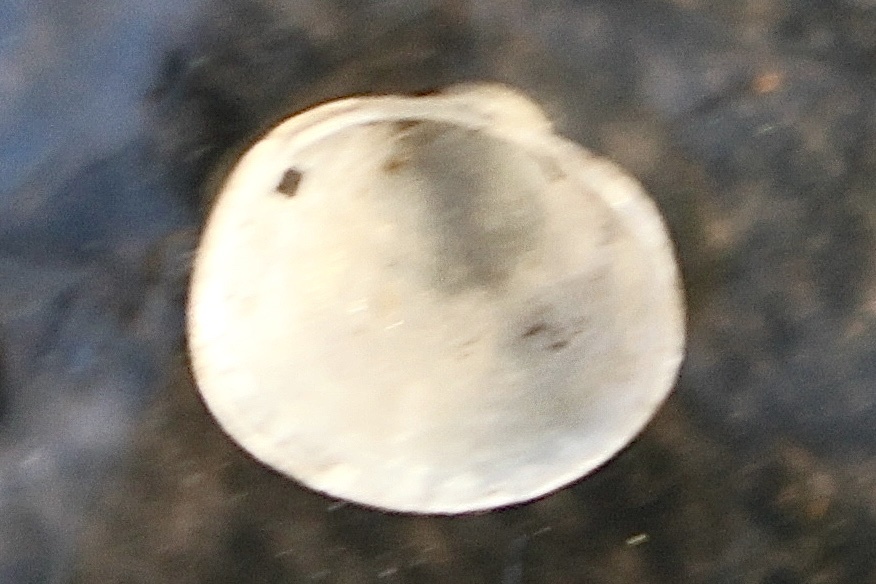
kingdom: Animalia
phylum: Mollusca
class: Bivalvia
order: Sphaeriida
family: Sphaeriidae
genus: Musculium
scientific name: Musculium partumeium
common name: Swamp fingernailclam
